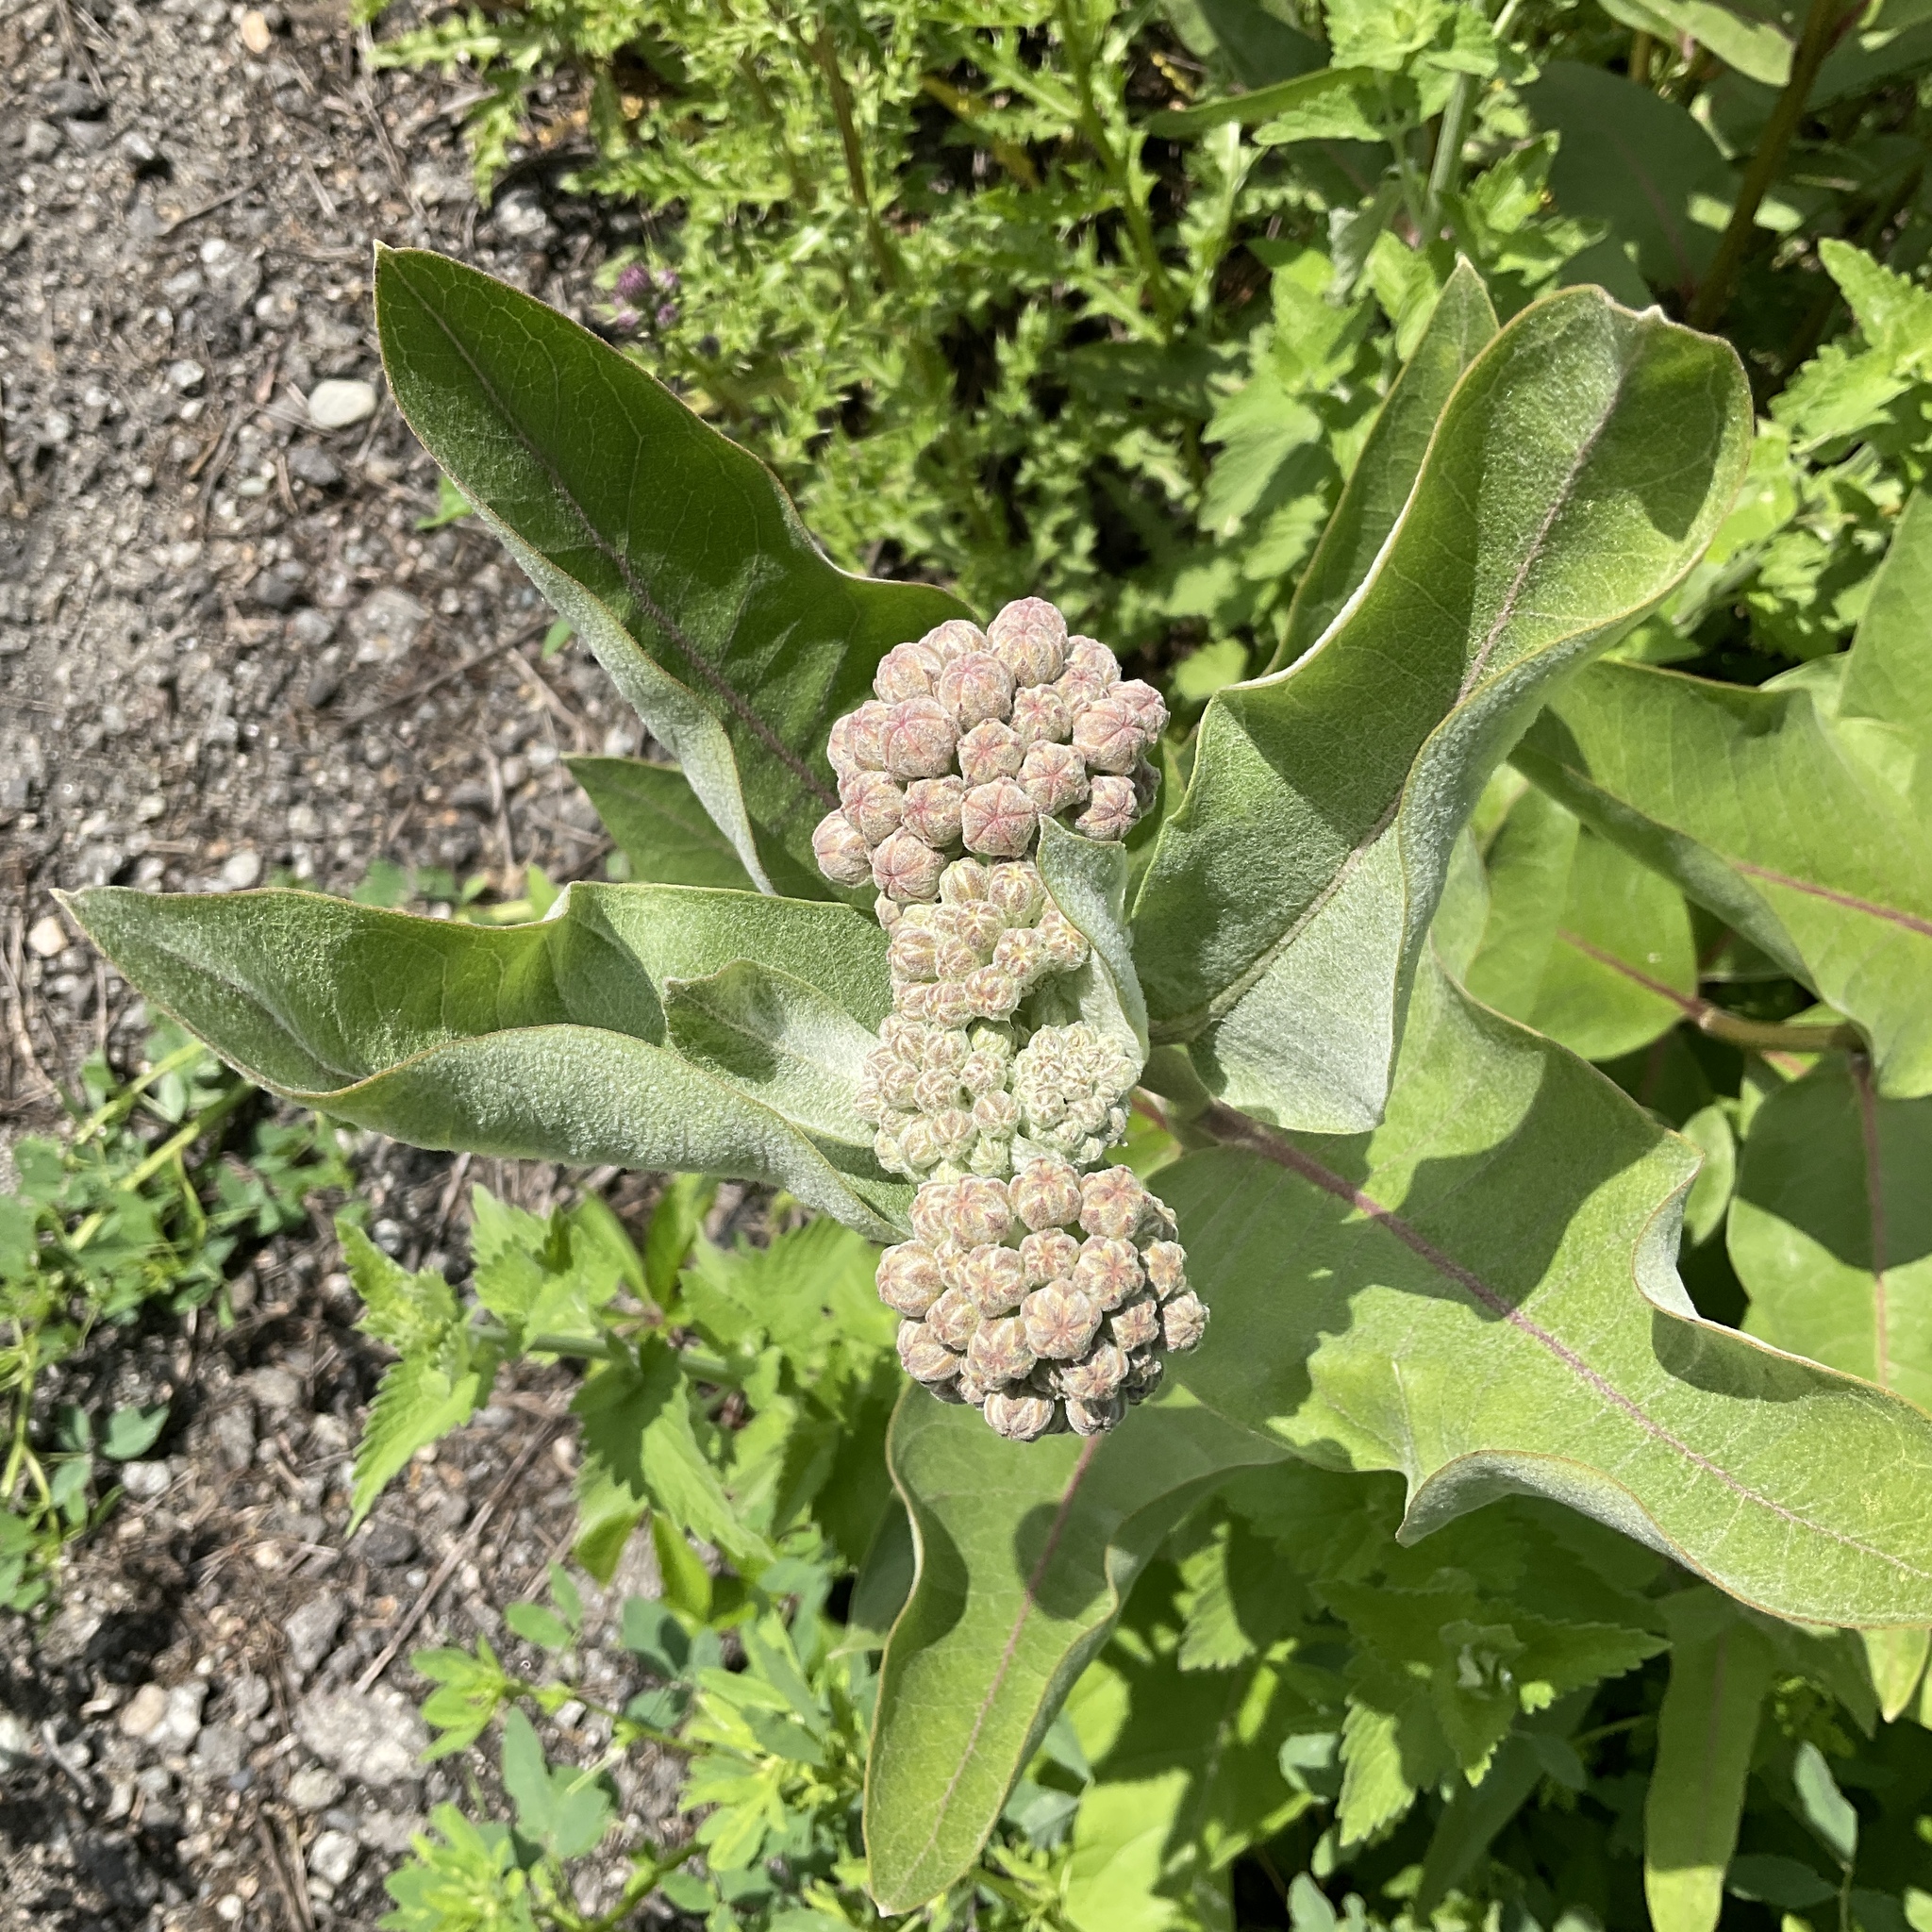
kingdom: Plantae
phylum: Tracheophyta
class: Magnoliopsida
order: Gentianales
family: Apocynaceae
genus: Asclepias
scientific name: Asclepias speciosa
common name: Showy milkweed
